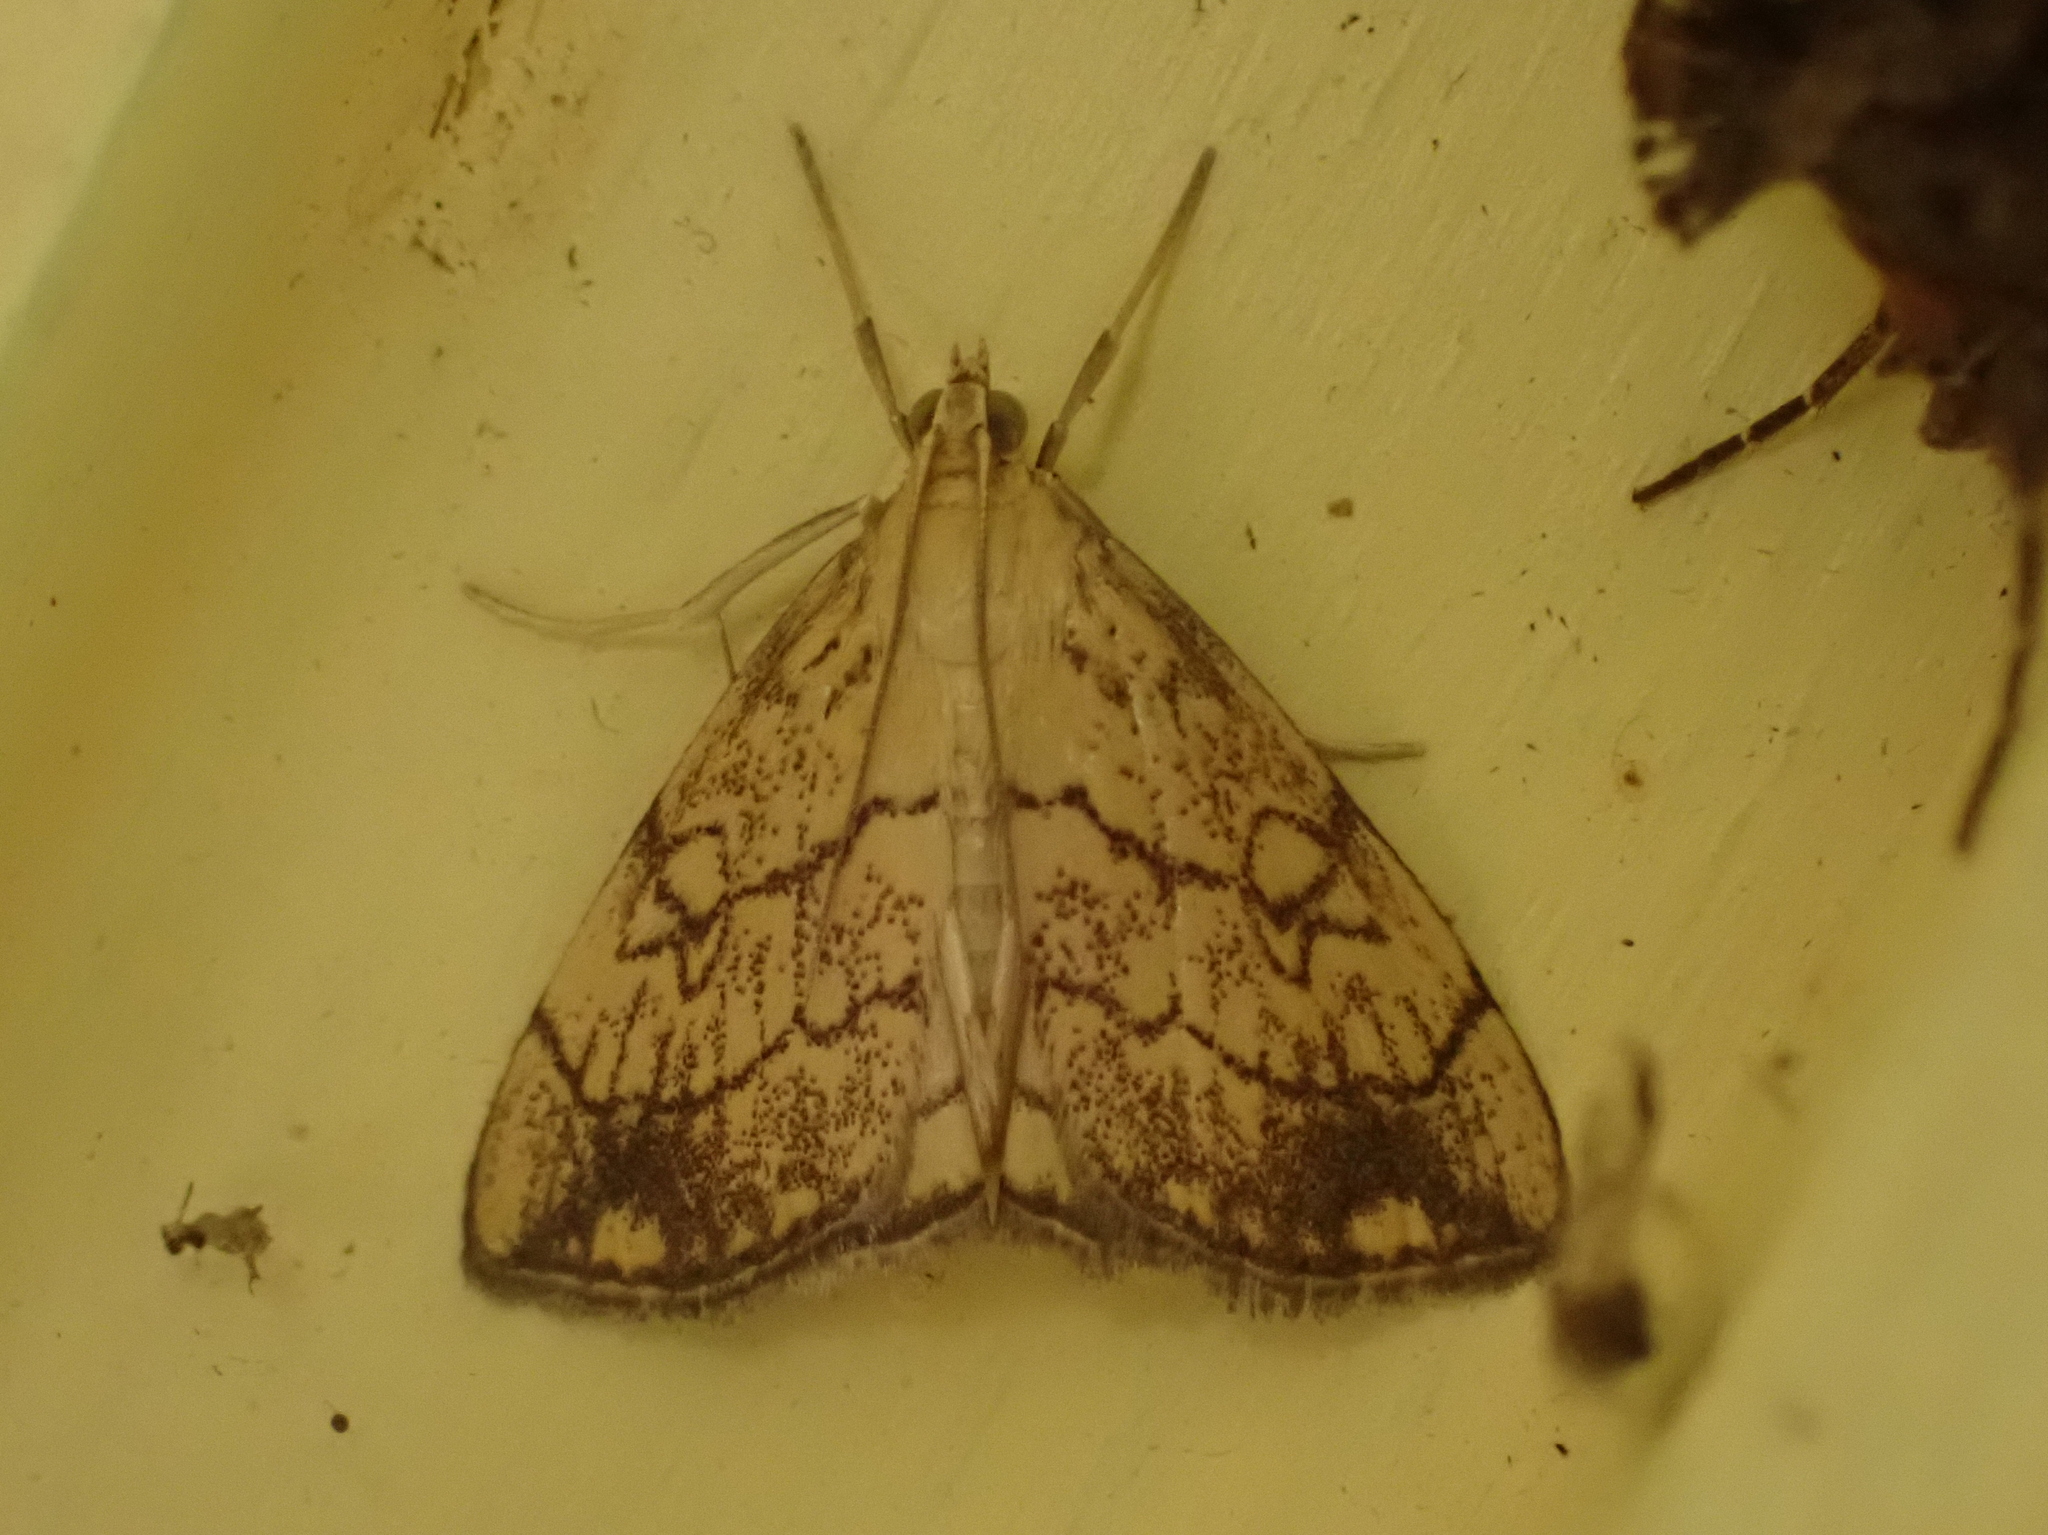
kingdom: Animalia
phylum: Arthropoda
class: Insecta
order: Lepidoptera
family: Crambidae
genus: Evergestis
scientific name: Evergestis pallidata
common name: Chequered pearl
